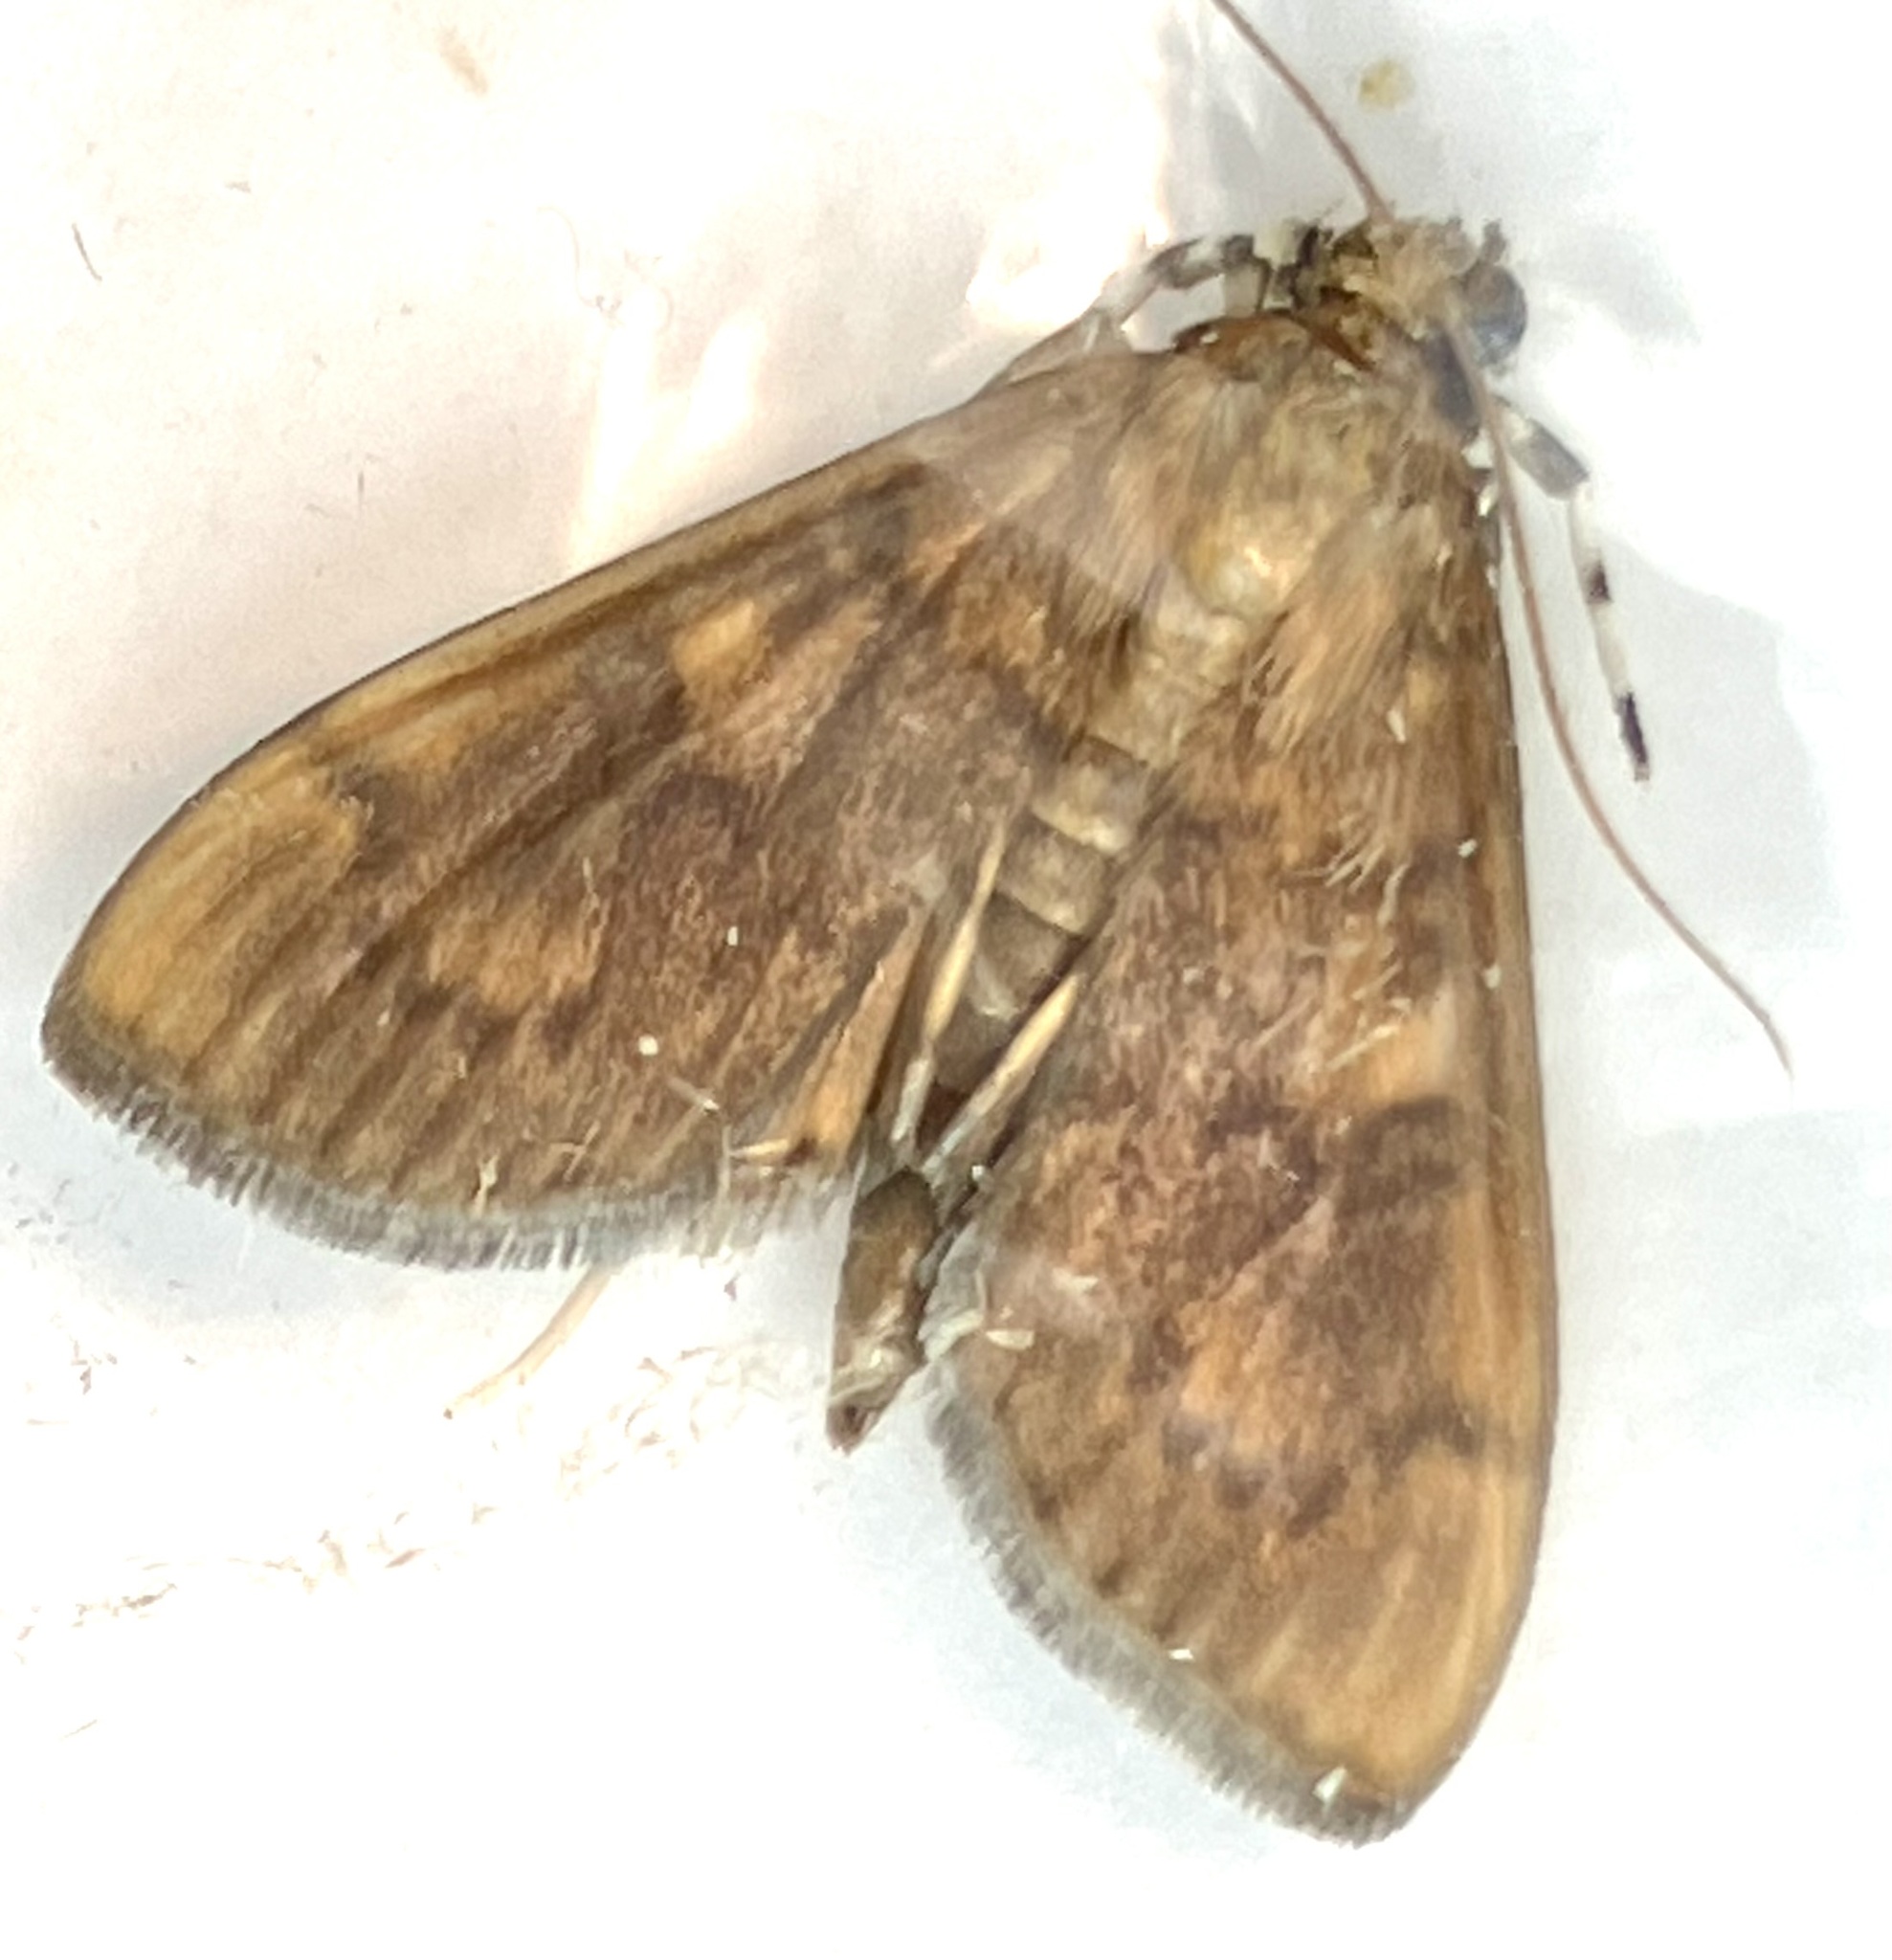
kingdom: Animalia
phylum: Arthropoda
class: Insecta
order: Lepidoptera
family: Crambidae
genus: Syllepte
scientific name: Syllepte obscuralis
